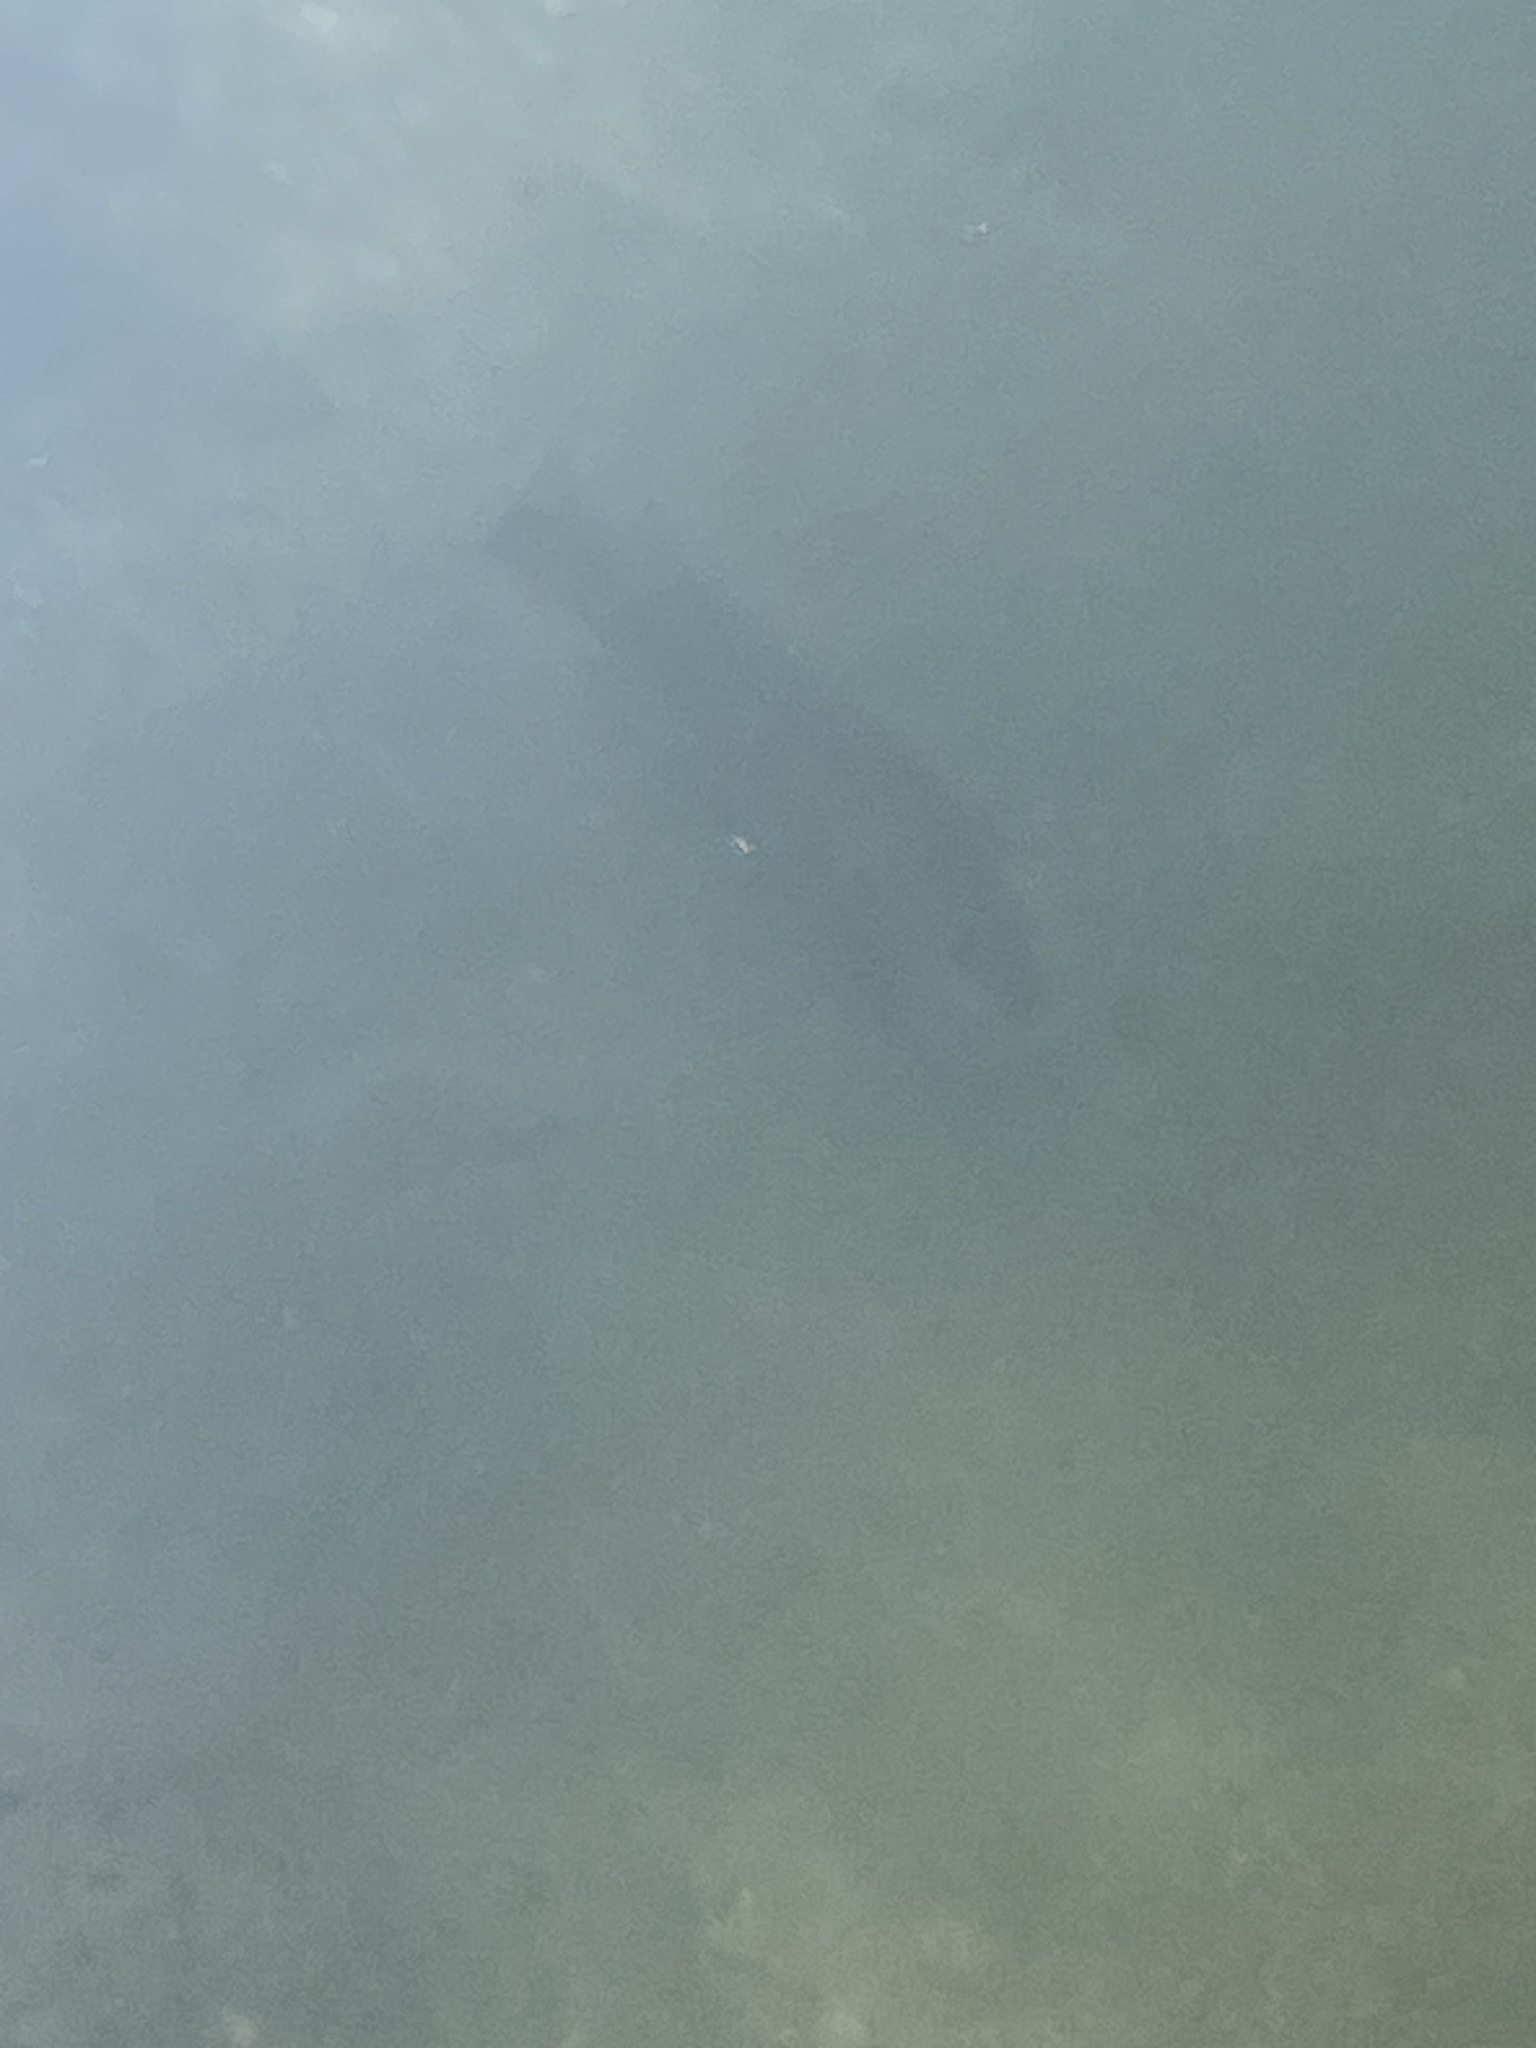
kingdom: Animalia
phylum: Chordata
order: Perciformes
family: Lutjanidae
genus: Lutjanus
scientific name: Lutjanus griseus
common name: Gray snapper
